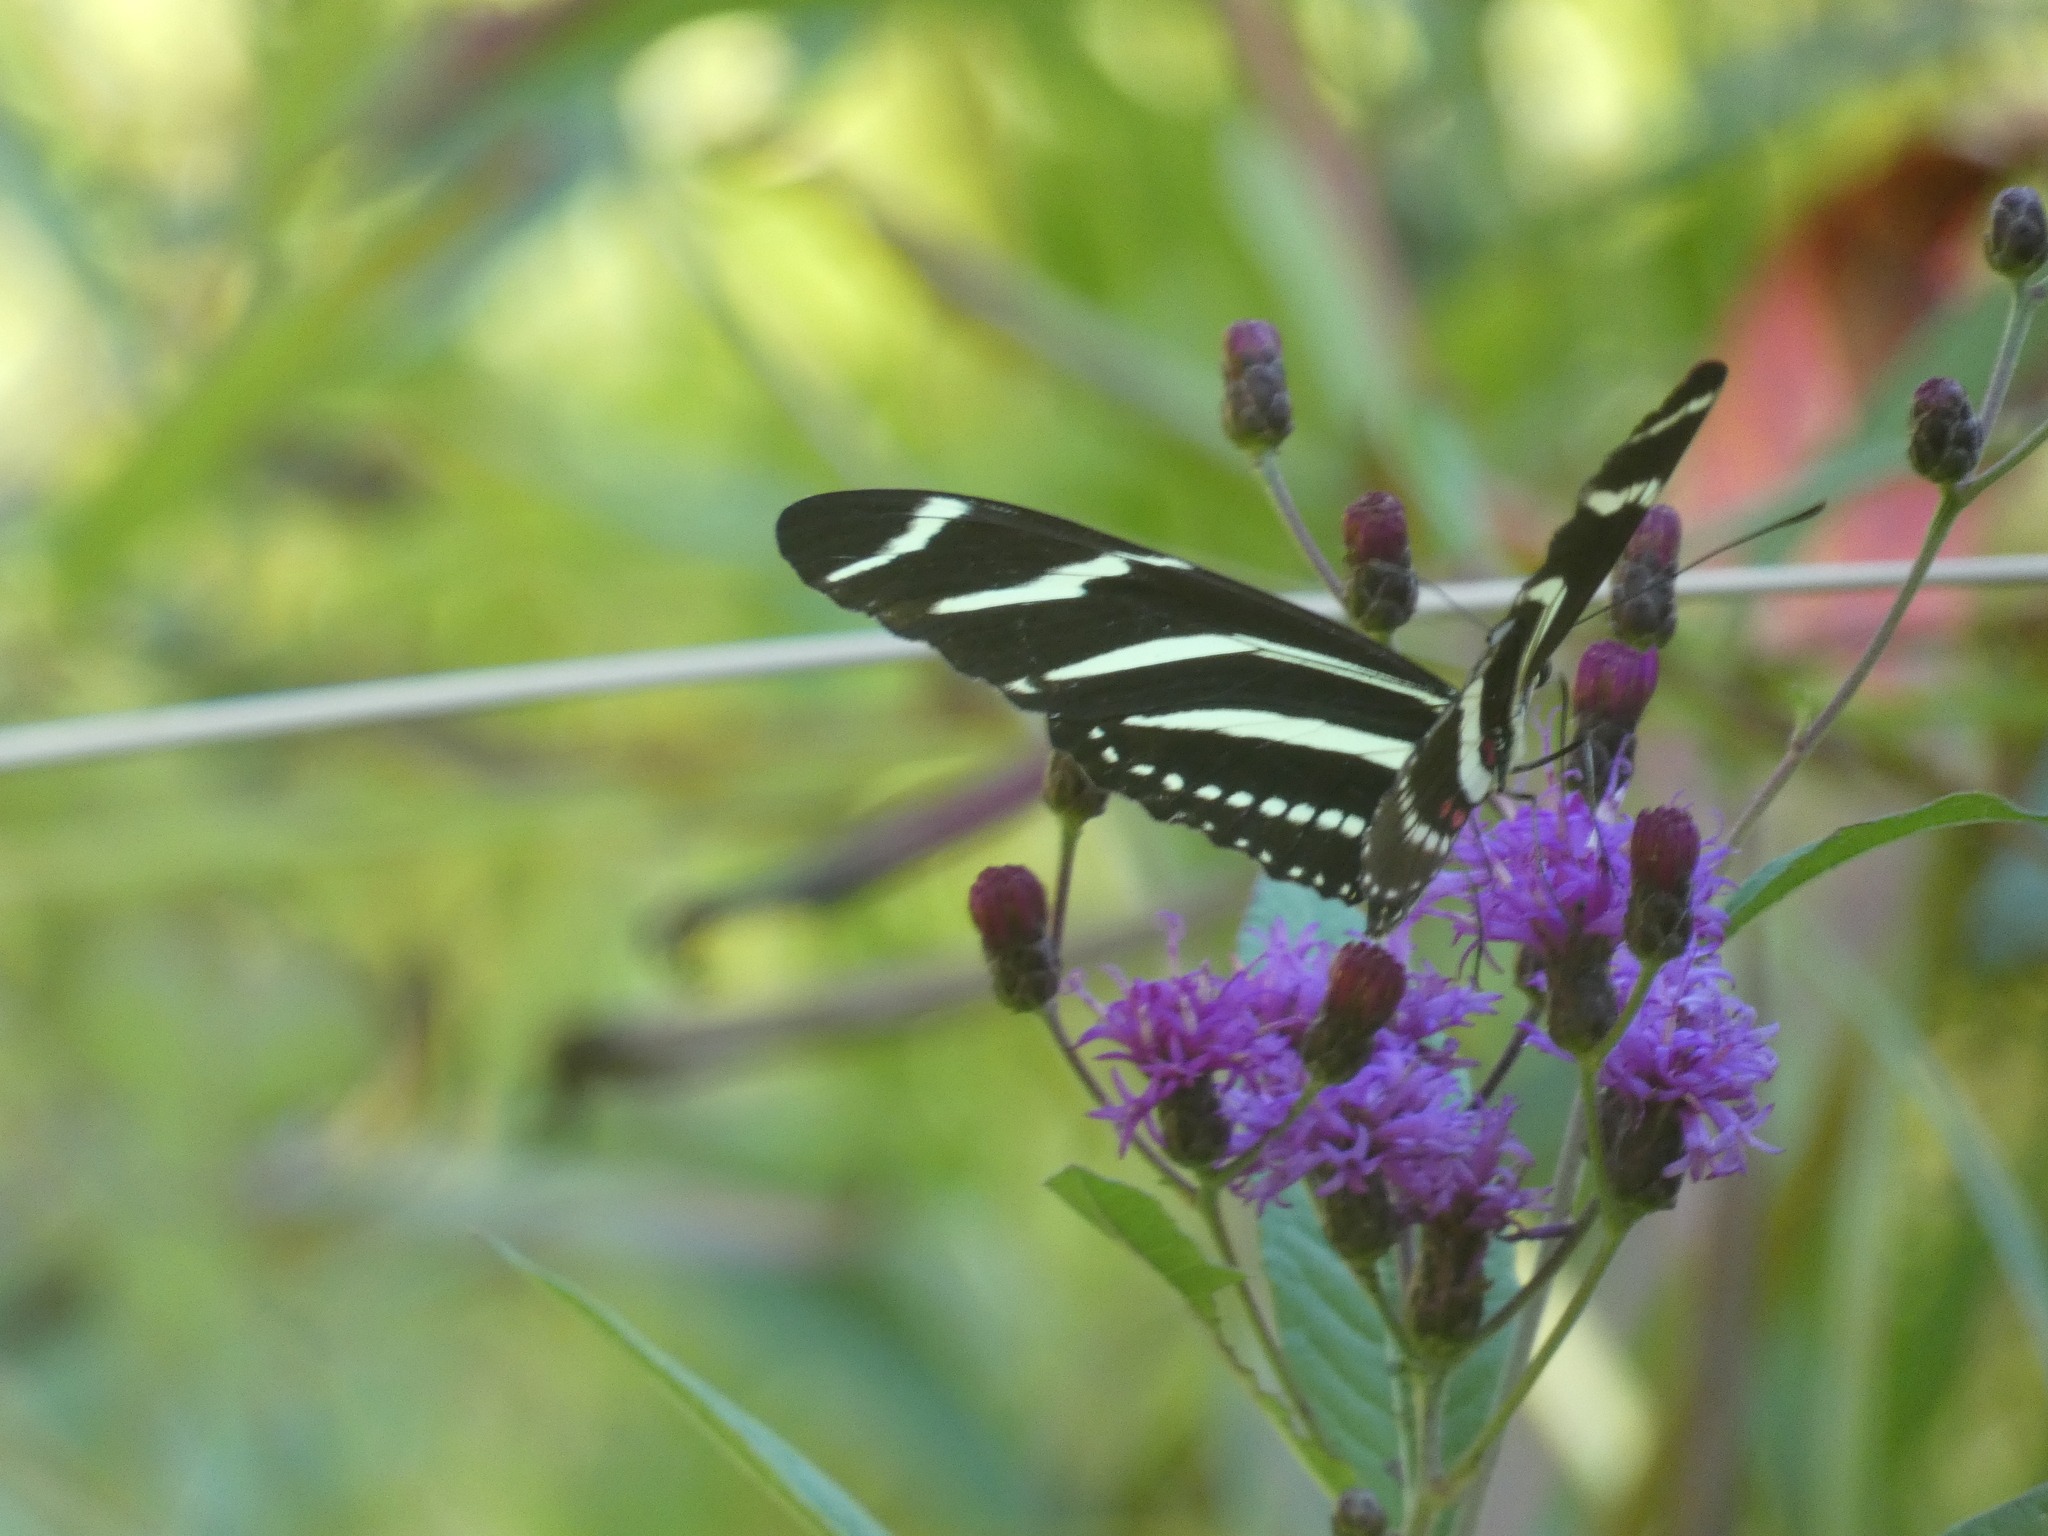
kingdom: Animalia
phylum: Arthropoda
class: Insecta
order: Lepidoptera
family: Nymphalidae
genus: Heliconius
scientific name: Heliconius charithonia
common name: Zebra long wing
